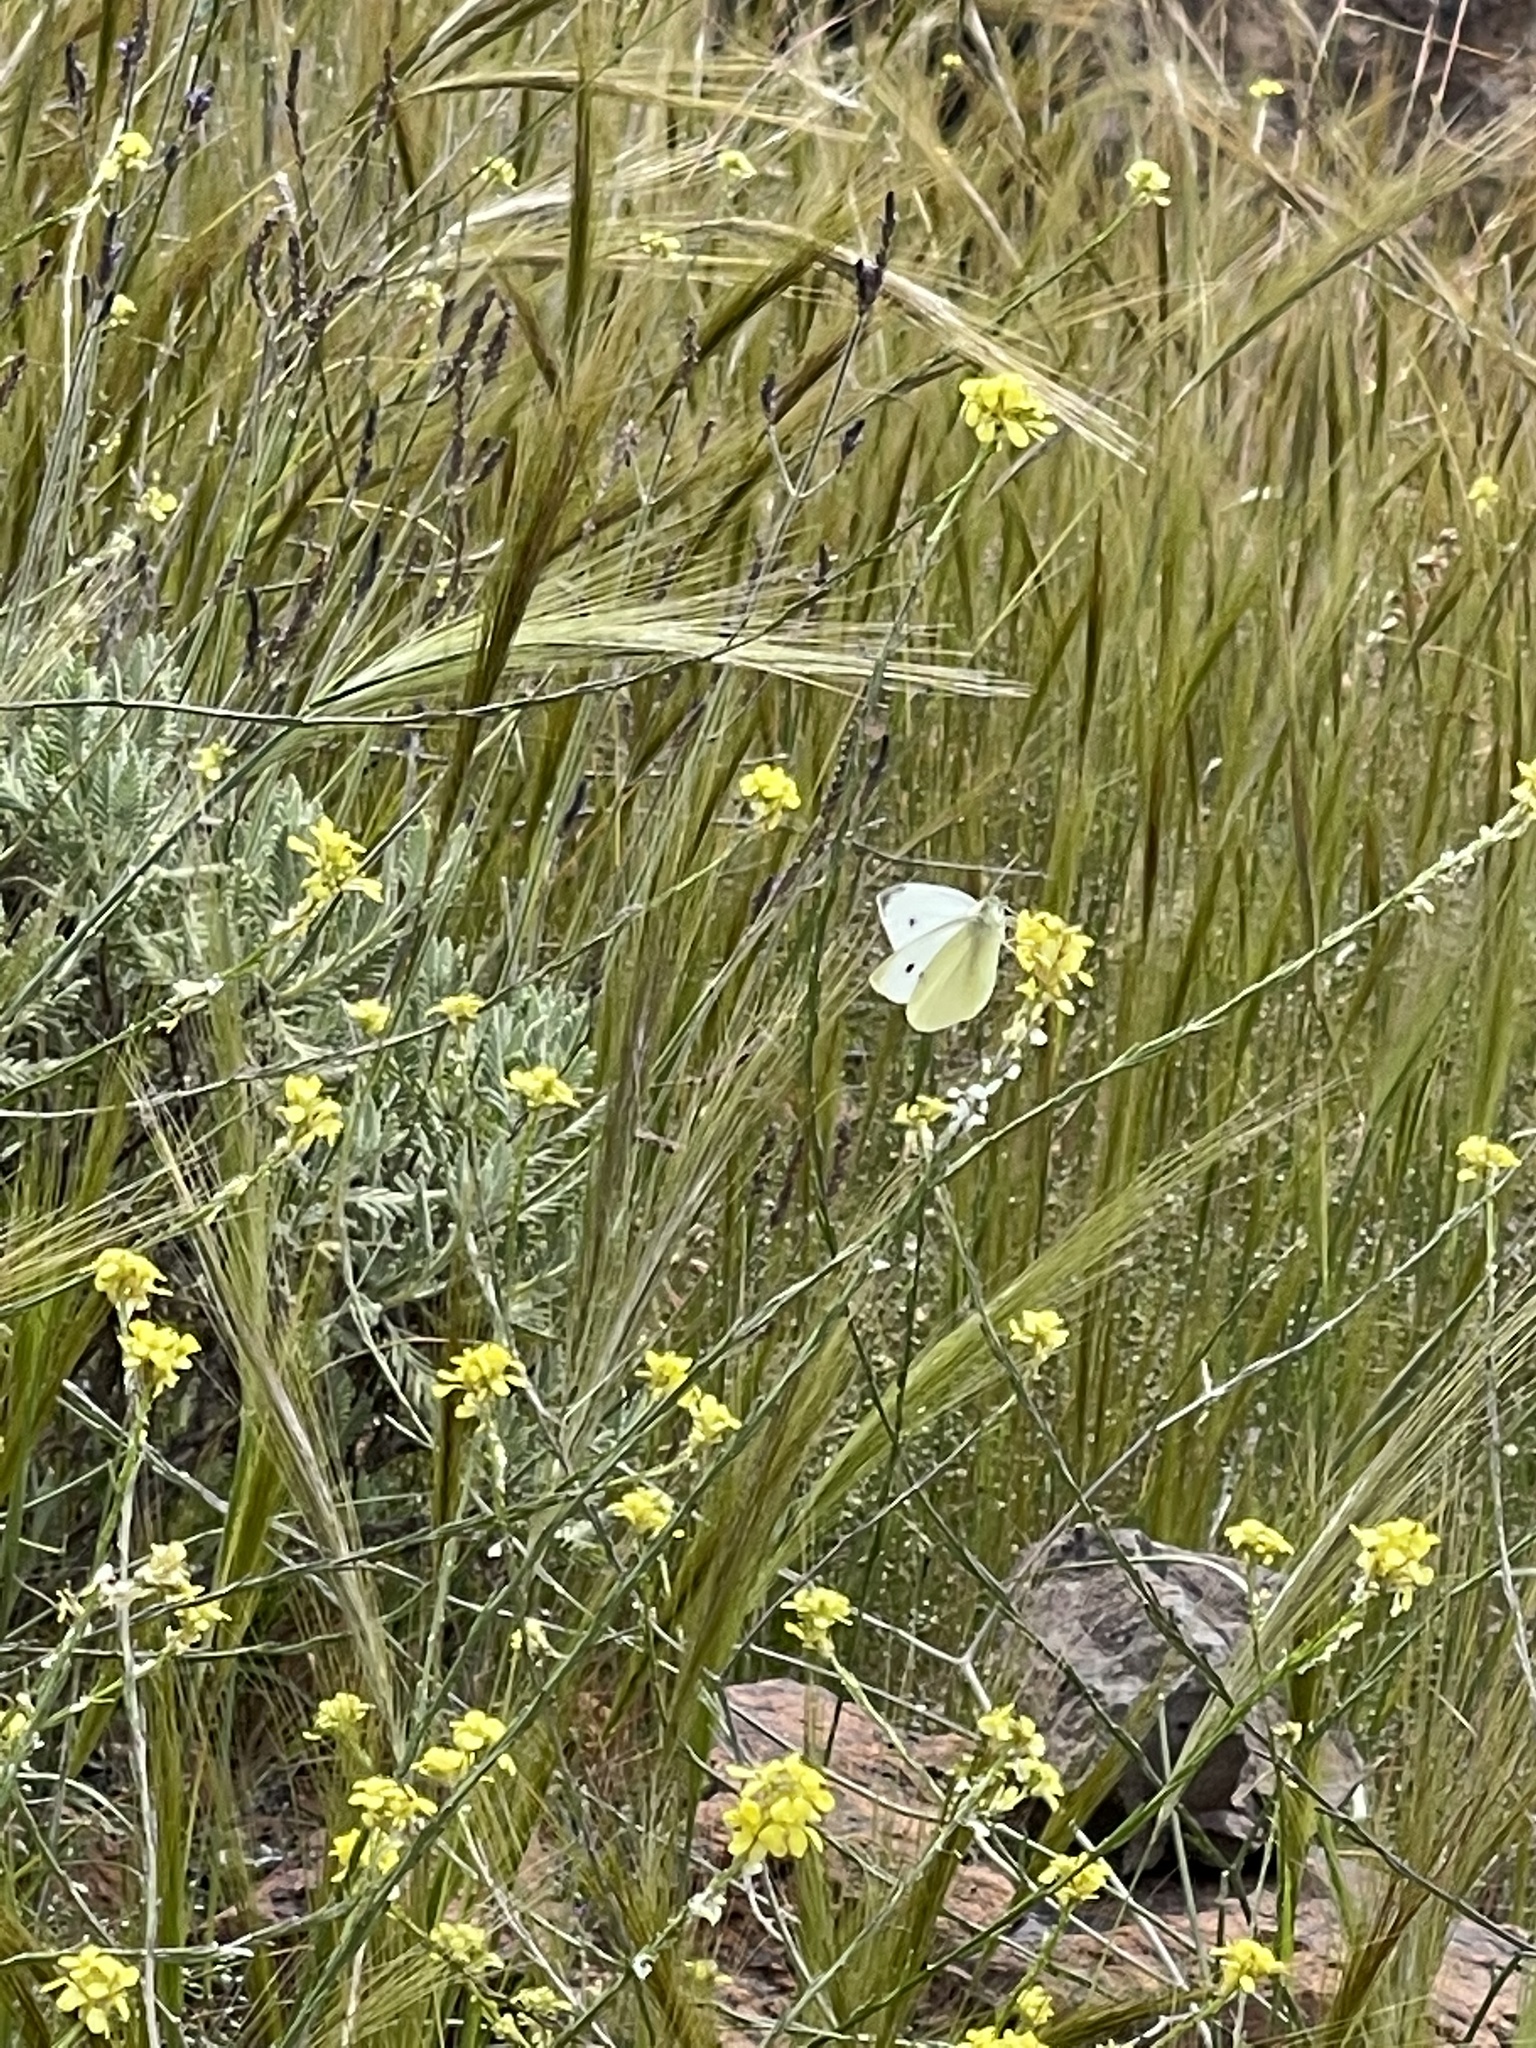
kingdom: Animalia
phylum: Arthropoda
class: Insecta
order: Lepidoptera
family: Pieridae
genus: Pieris
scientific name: Pieris rapae
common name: Small white
